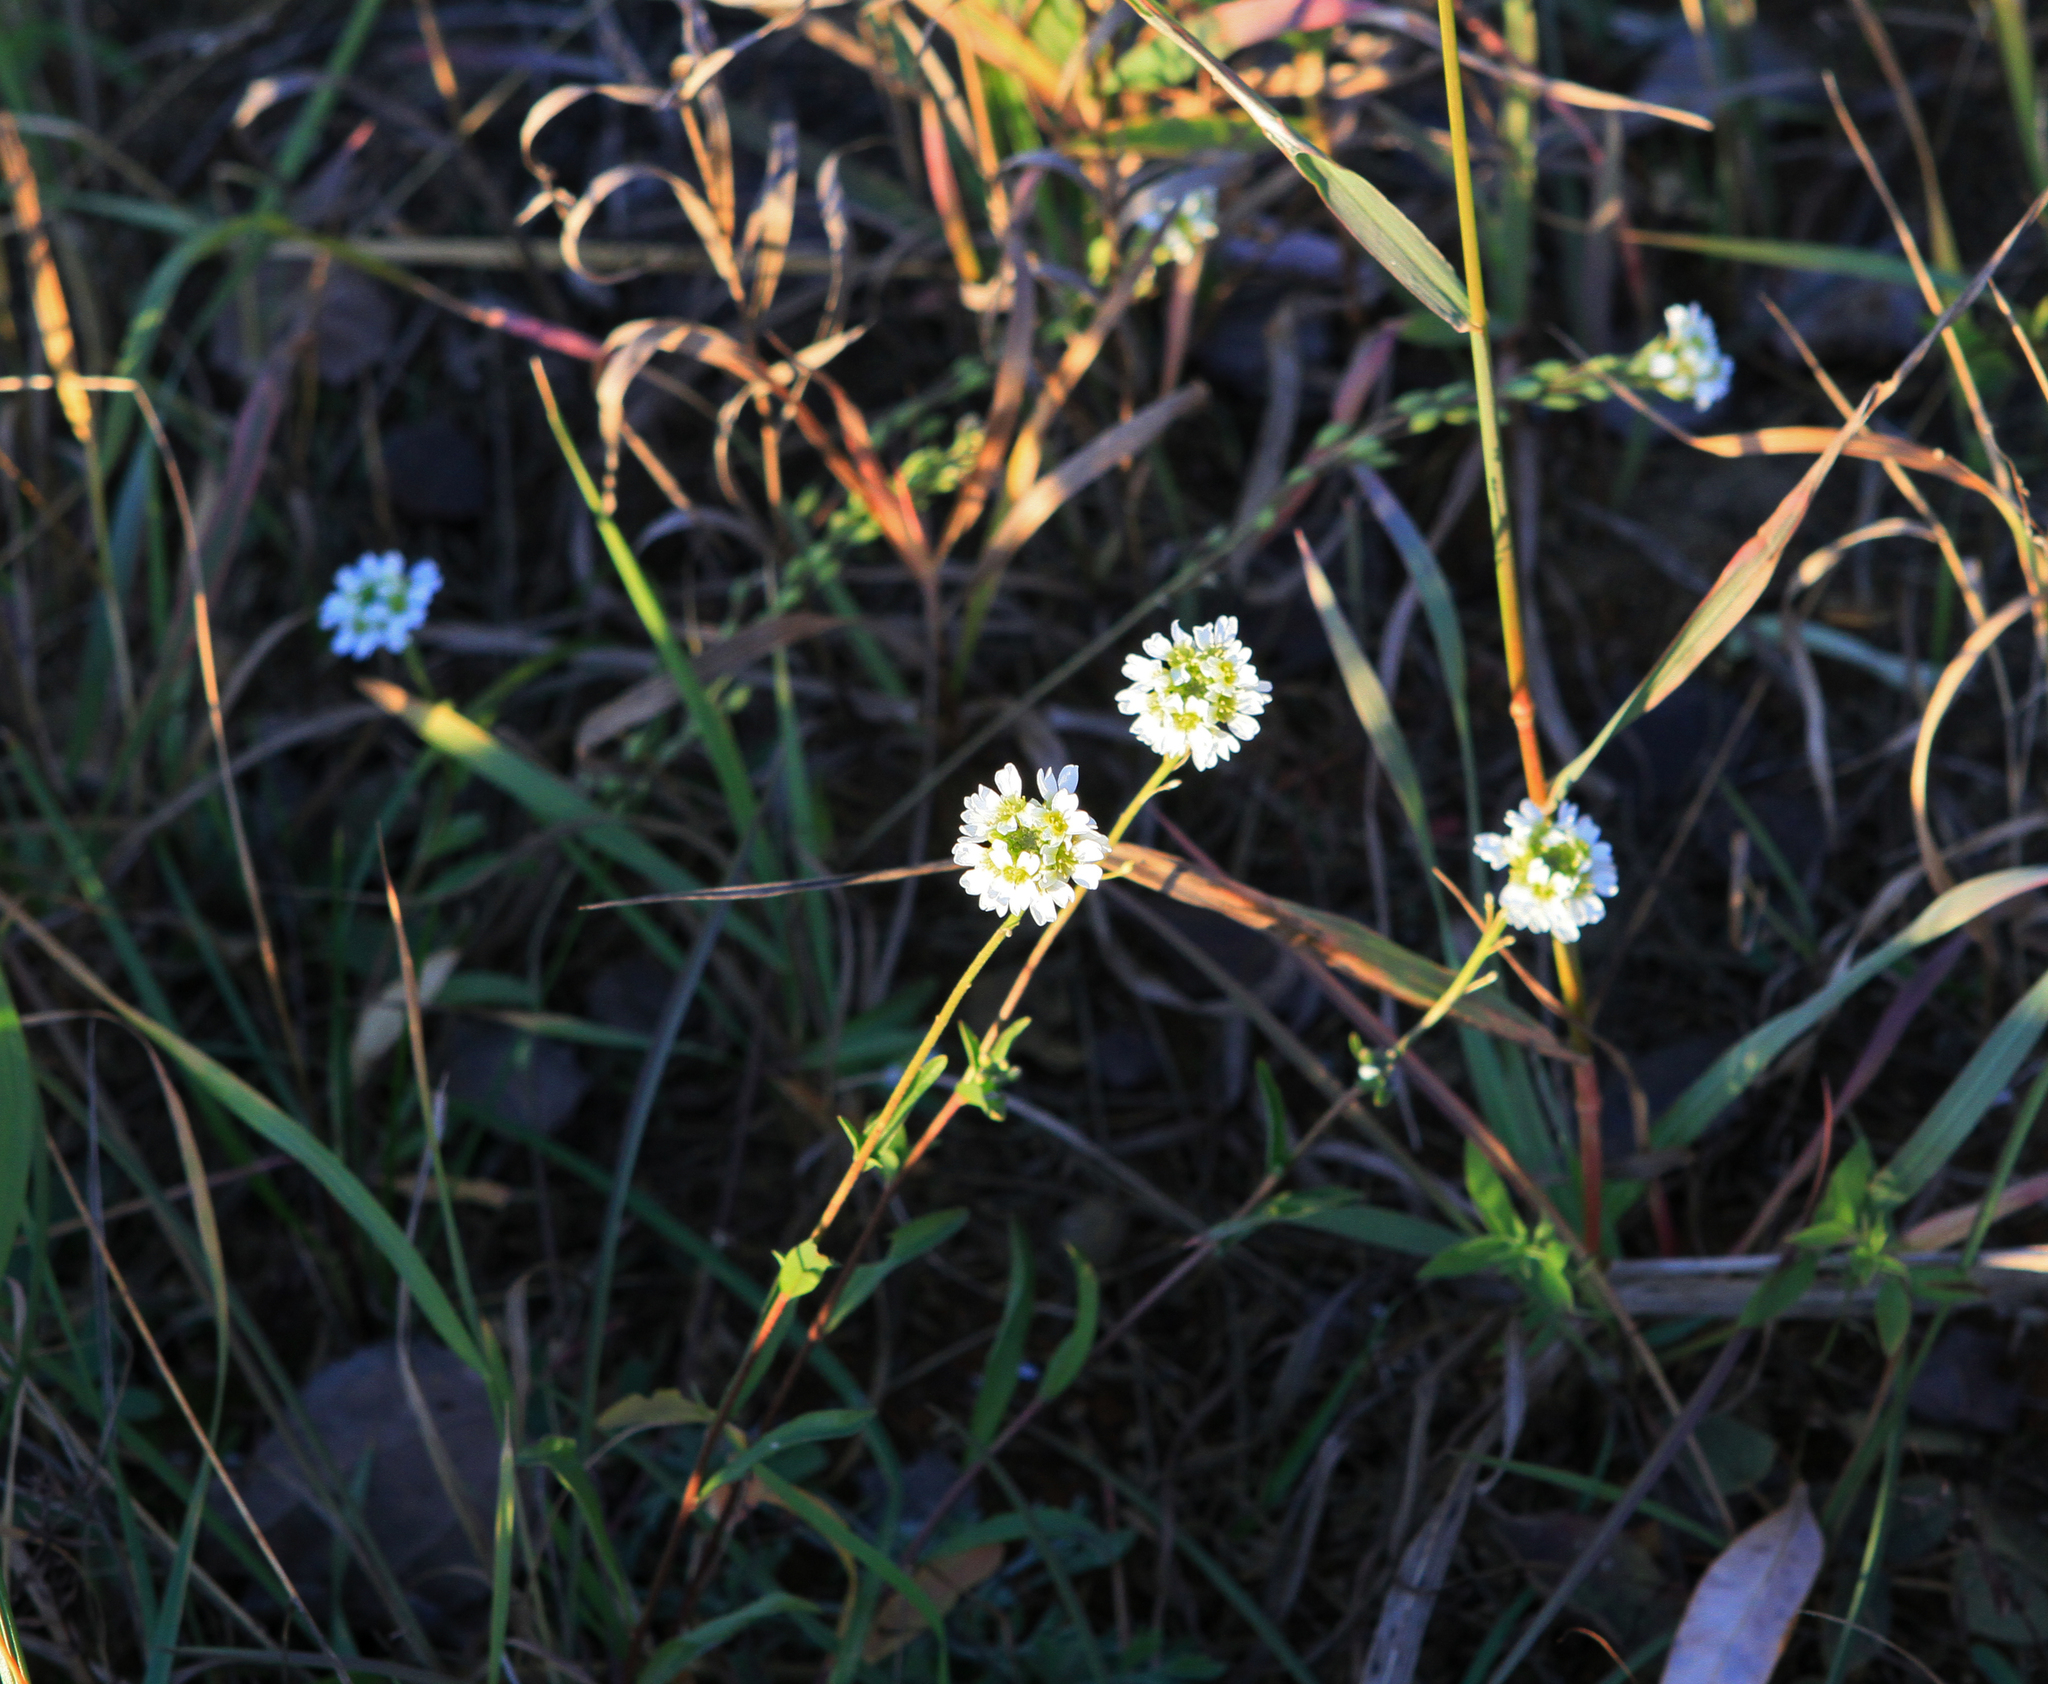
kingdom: Plantae
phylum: Tracheophyta
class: Magnoliopsida
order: Brassicales
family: Brassicaceae
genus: Berteroa
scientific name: Berteroa incana
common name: Hoary alison
